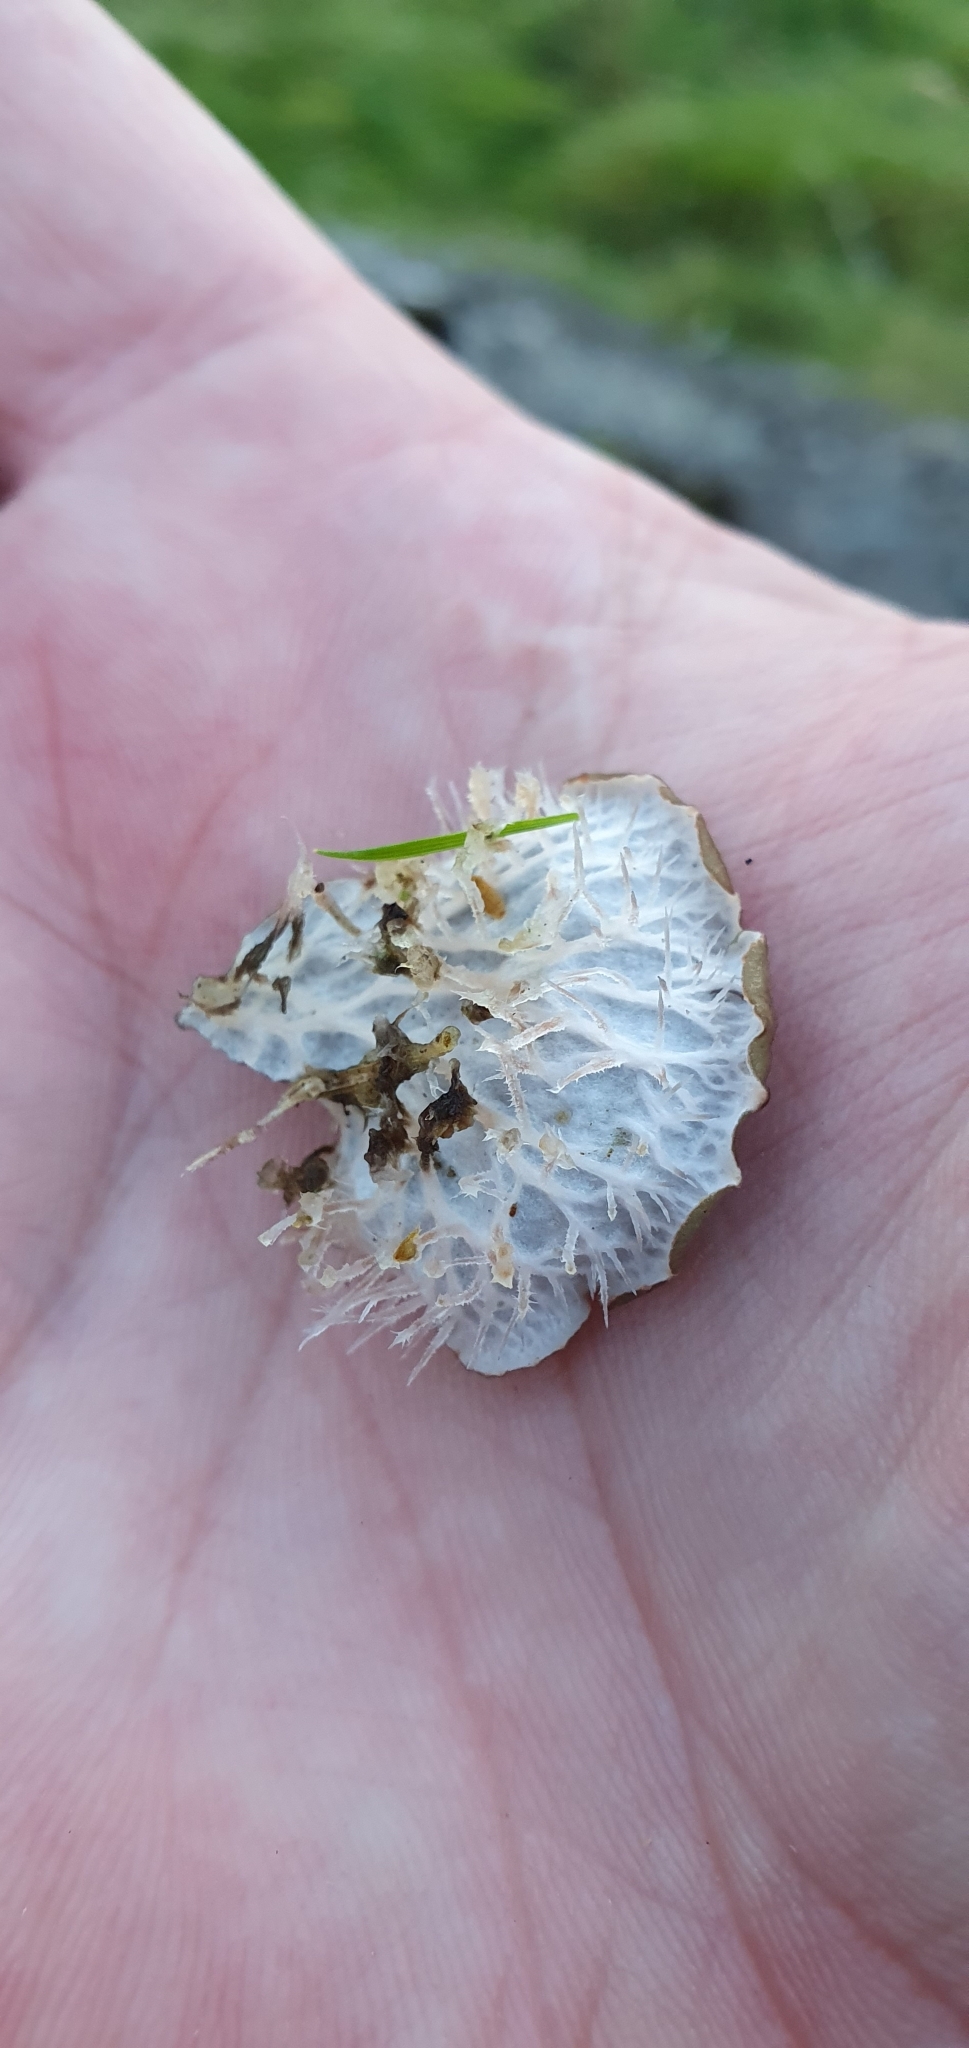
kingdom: Fungi
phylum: Ascomycota
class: Lecanoromycetes
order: Peltigerales
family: Peltigeraceae
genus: Peltigera
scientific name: Peltigera membranacea
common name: Membranous pelt lichen
